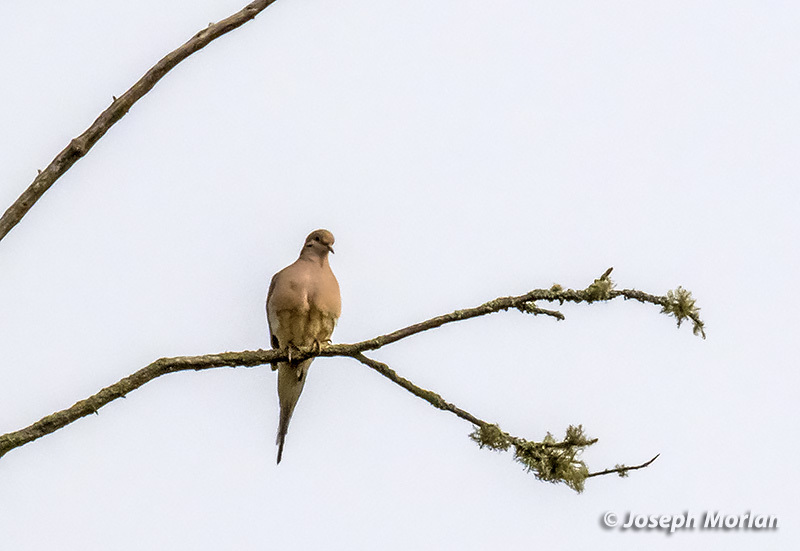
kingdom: Animalia
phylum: Chordata
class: Aves
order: Columbiformes
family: Columbidae
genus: Zenaida
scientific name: Zenaida macroura
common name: Mourning dove
